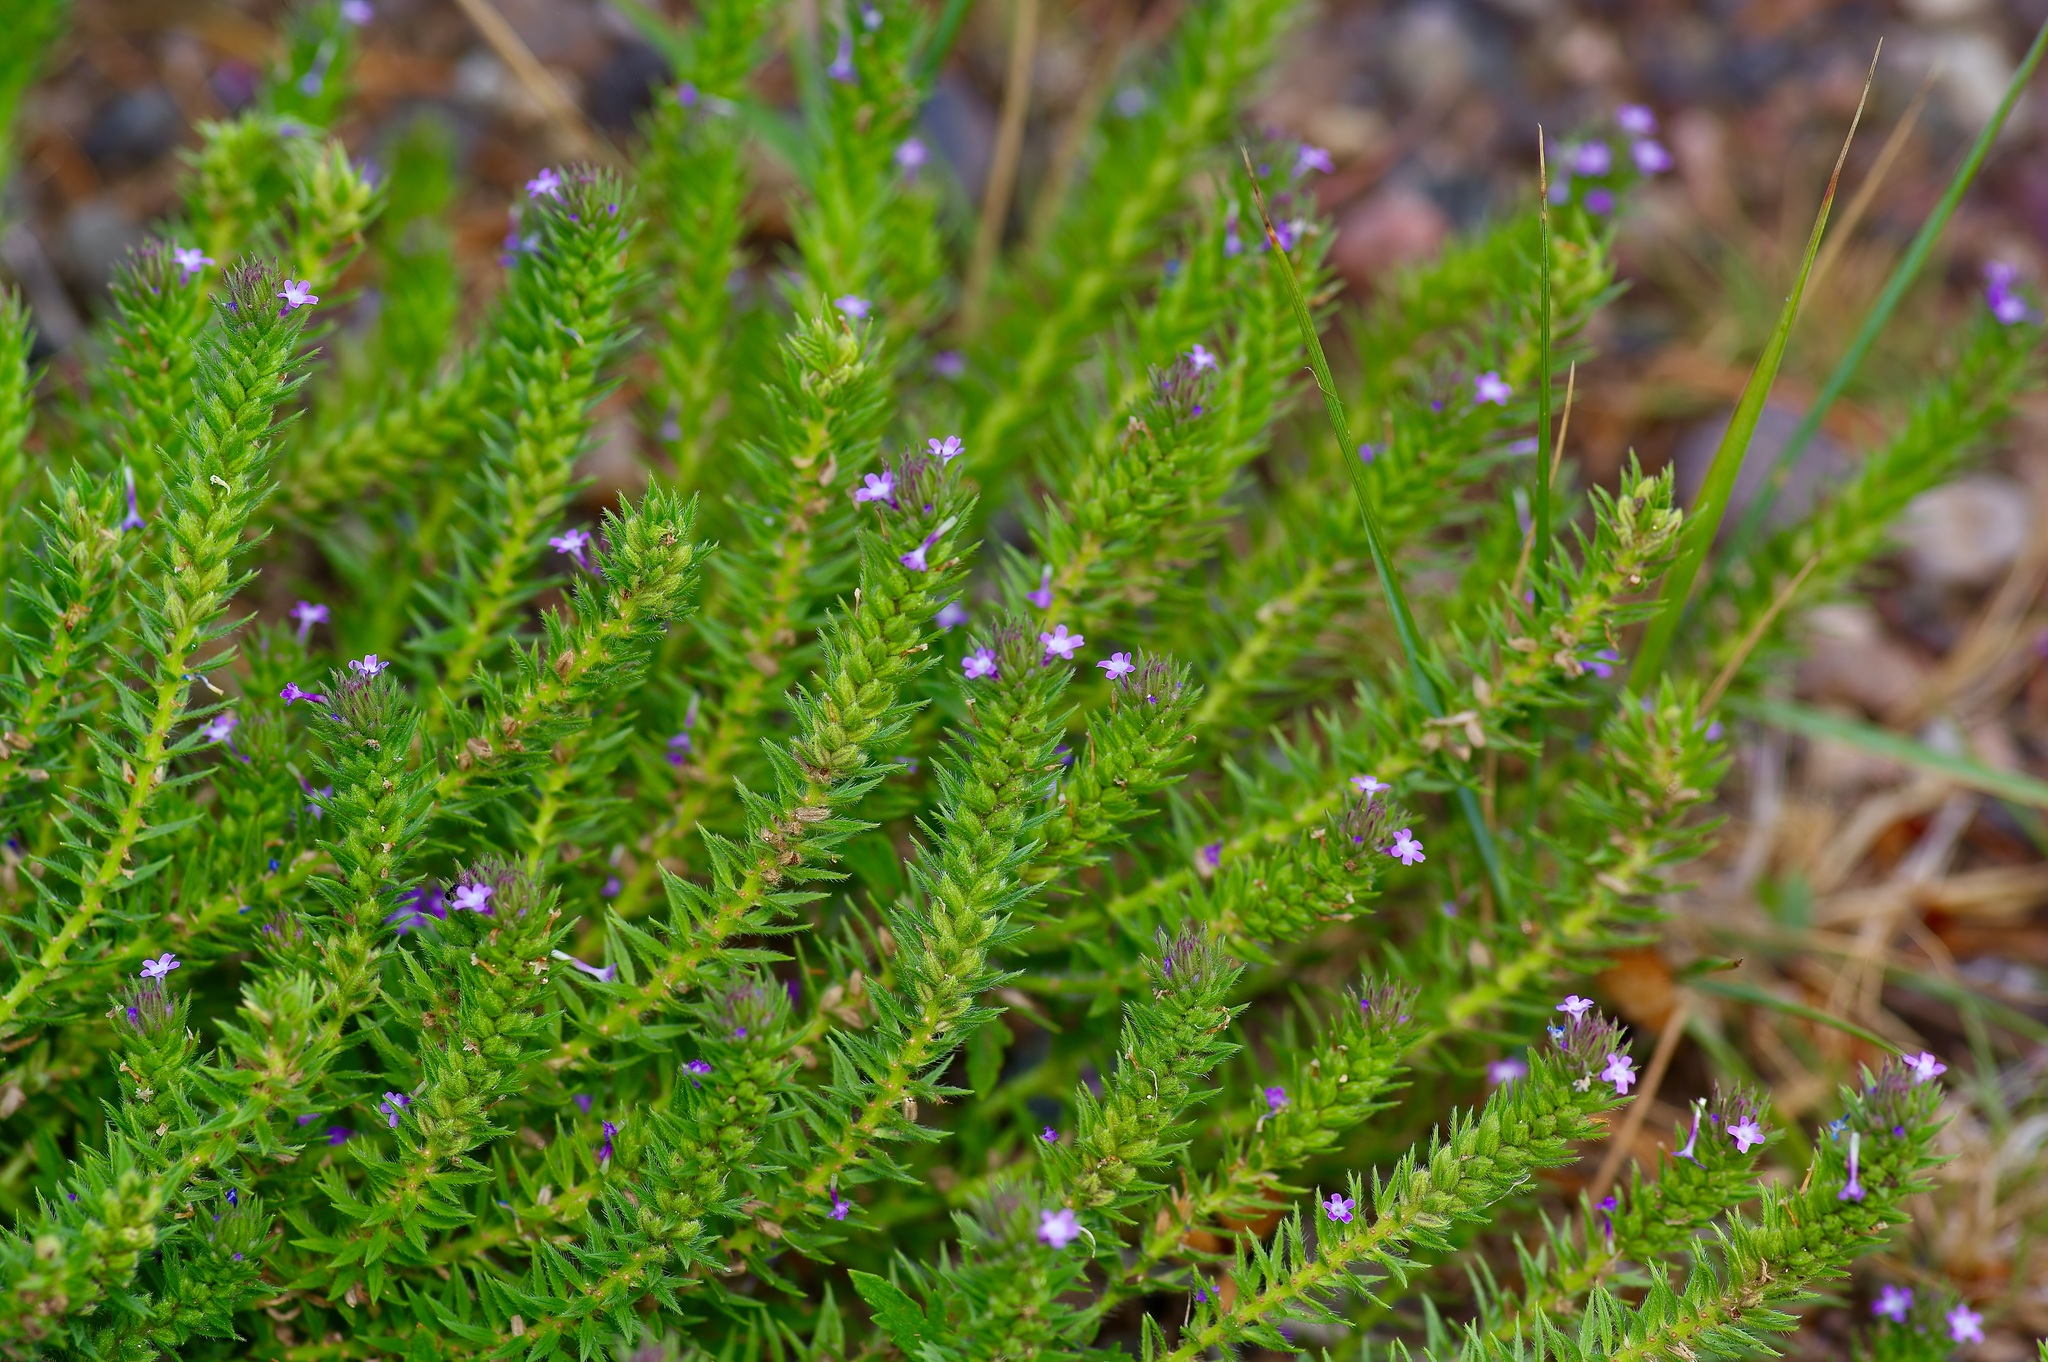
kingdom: Plantae
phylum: Tracheophyta
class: Magnoliopsida
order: Lamiales
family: Verbenaceae
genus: Verbena
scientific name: Verbena bracteata
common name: Bracted vervain
